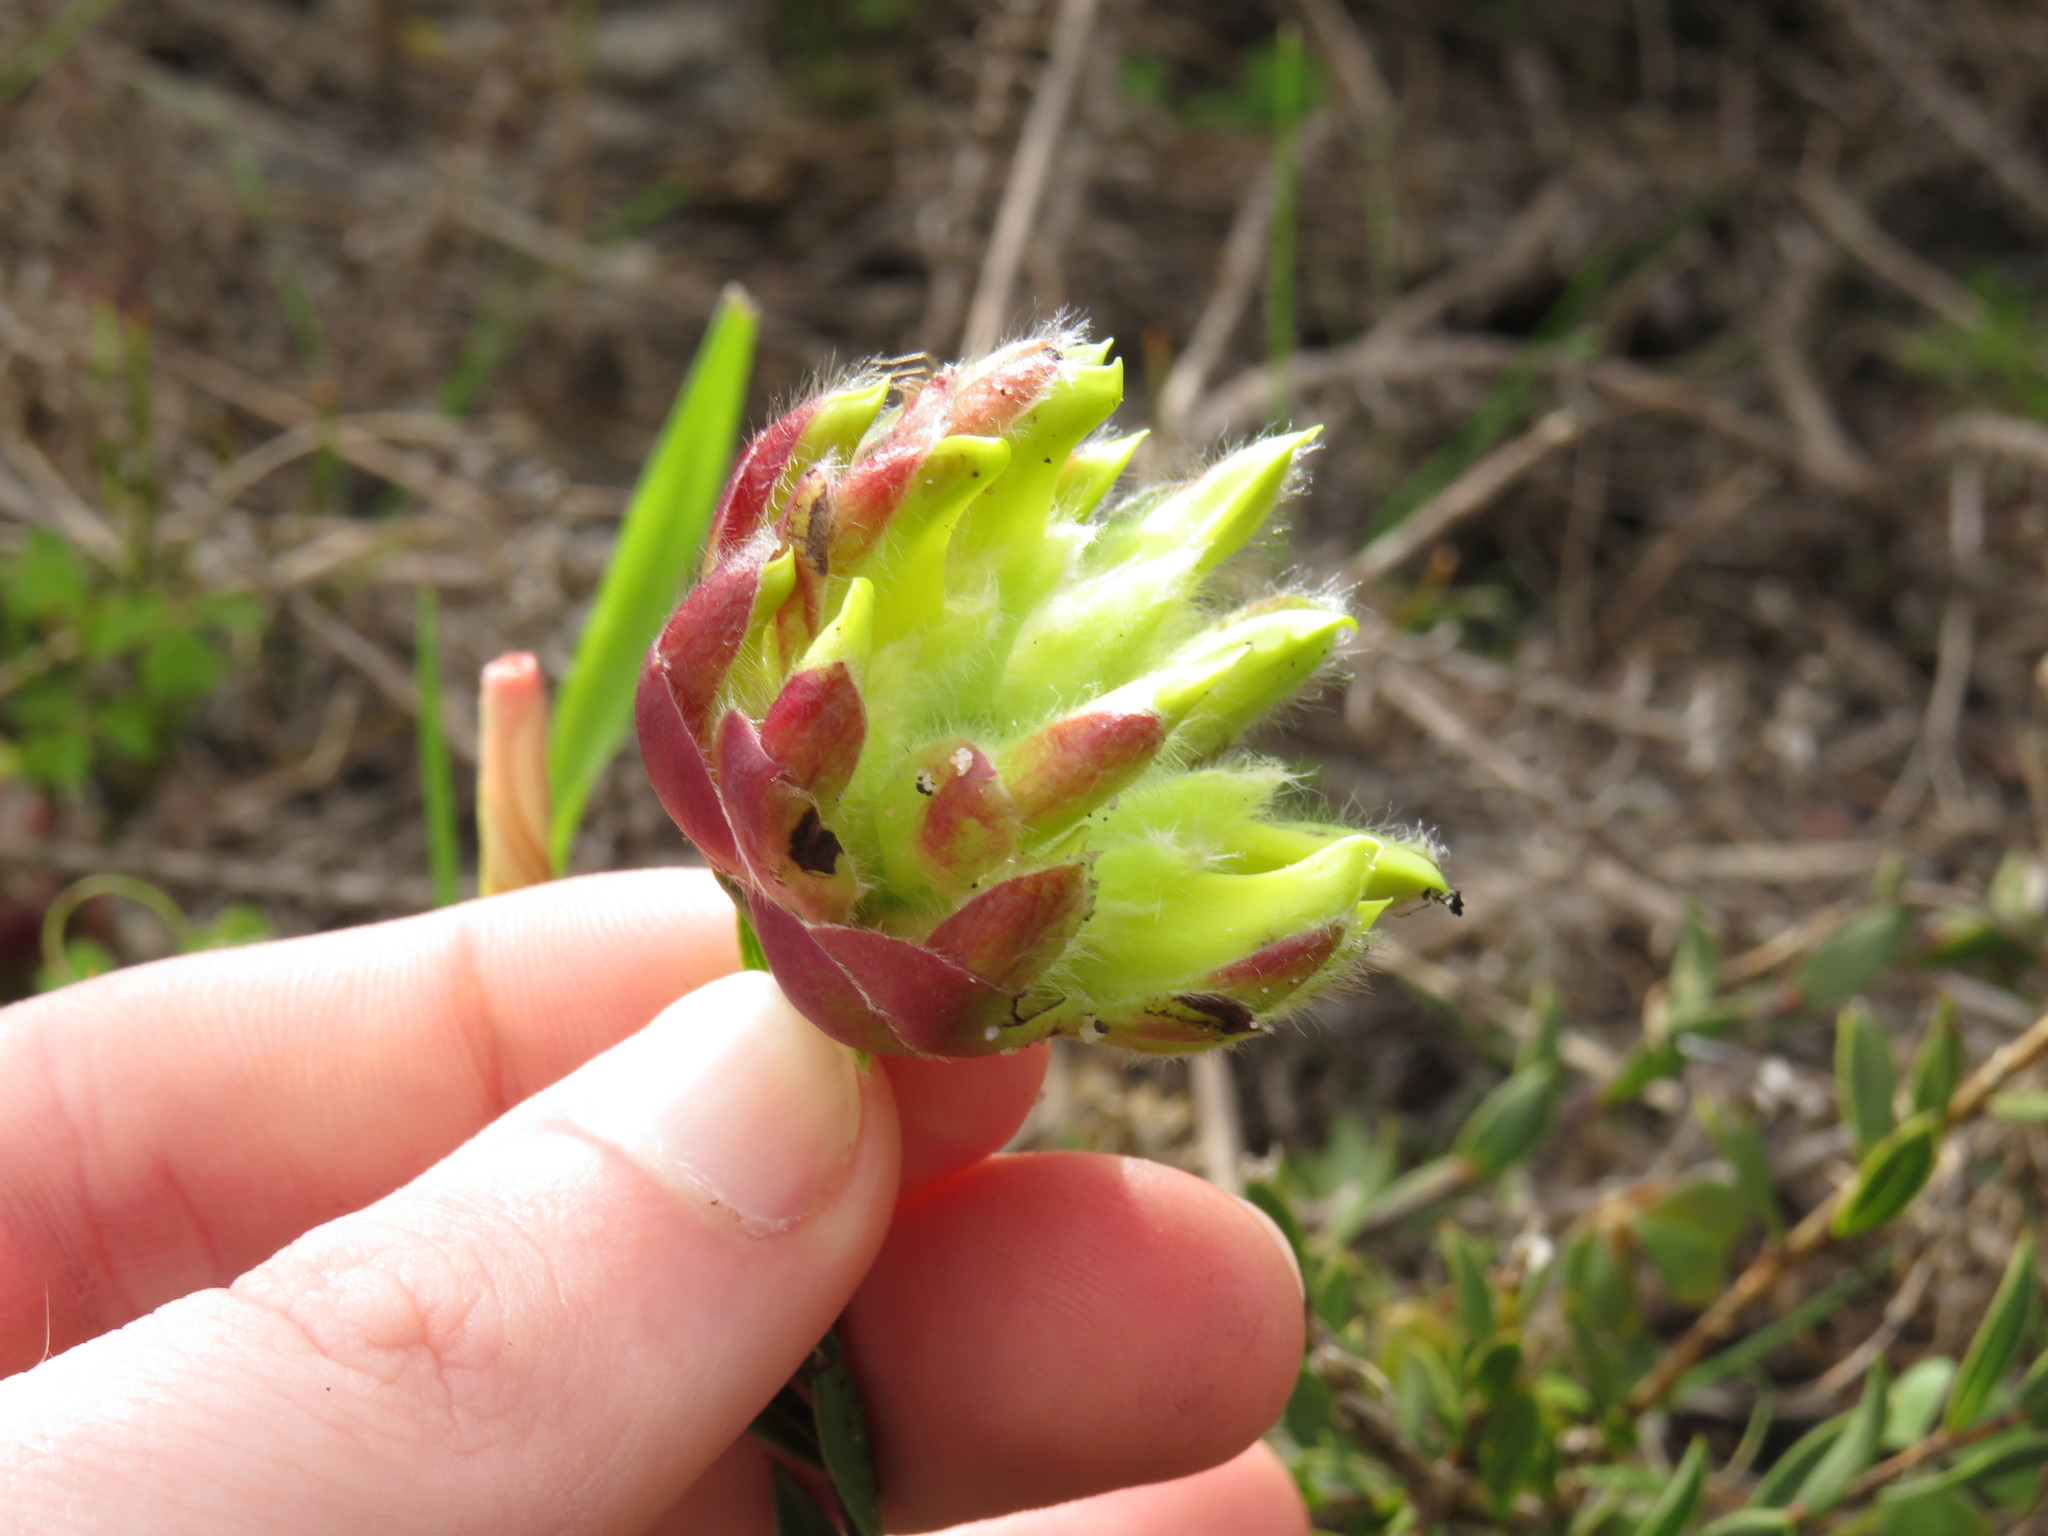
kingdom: Plantae
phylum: Tracheophyta
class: Magnoliopsida
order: Fabales
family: Fabaceae
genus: Liparia
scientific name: Liparia parva
